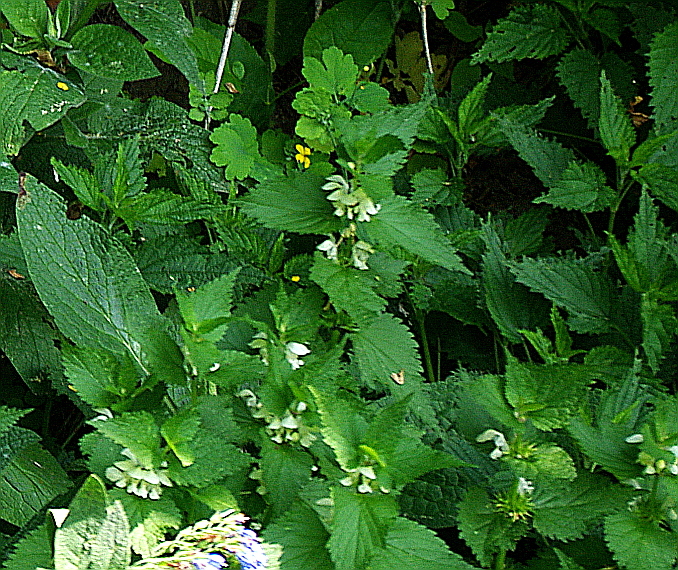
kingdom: Plantae
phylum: Tracheophyta
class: Magnoliopsida
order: Lamiales
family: Lamiaceae
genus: Lamium
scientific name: Lamium album
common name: White dead-nettle
